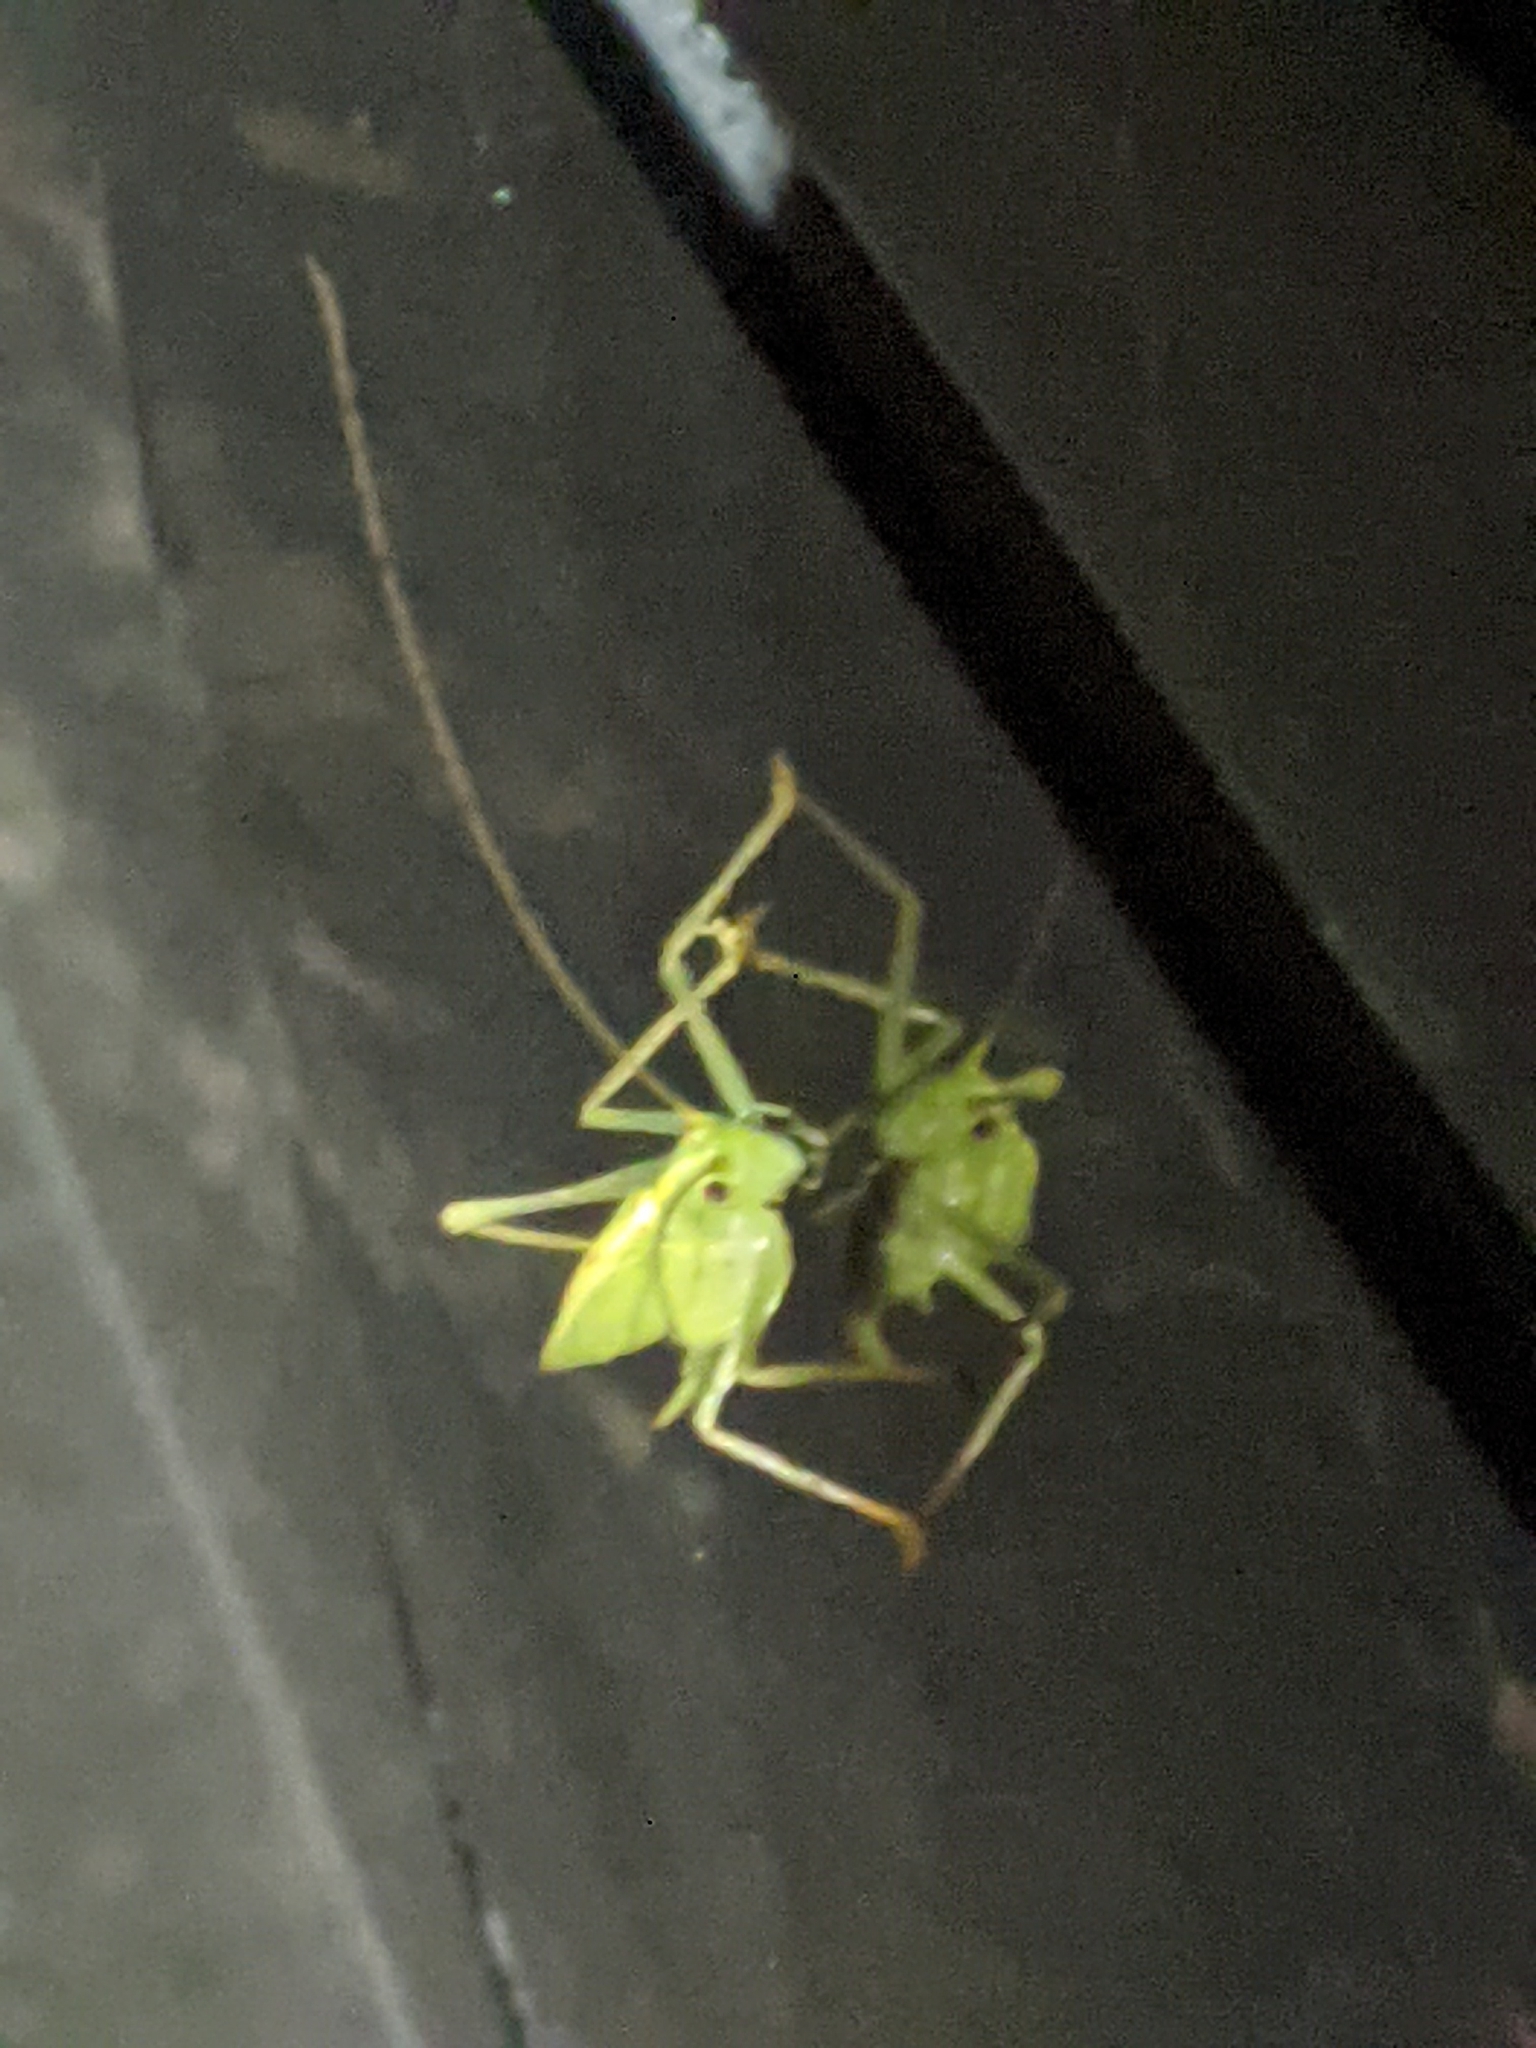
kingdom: Animalia
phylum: Arthropoda
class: Insecta
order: Orthoptera
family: Tettigoniidae
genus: Meconema
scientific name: Meconema thalassinum
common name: Oak bush-cricket
